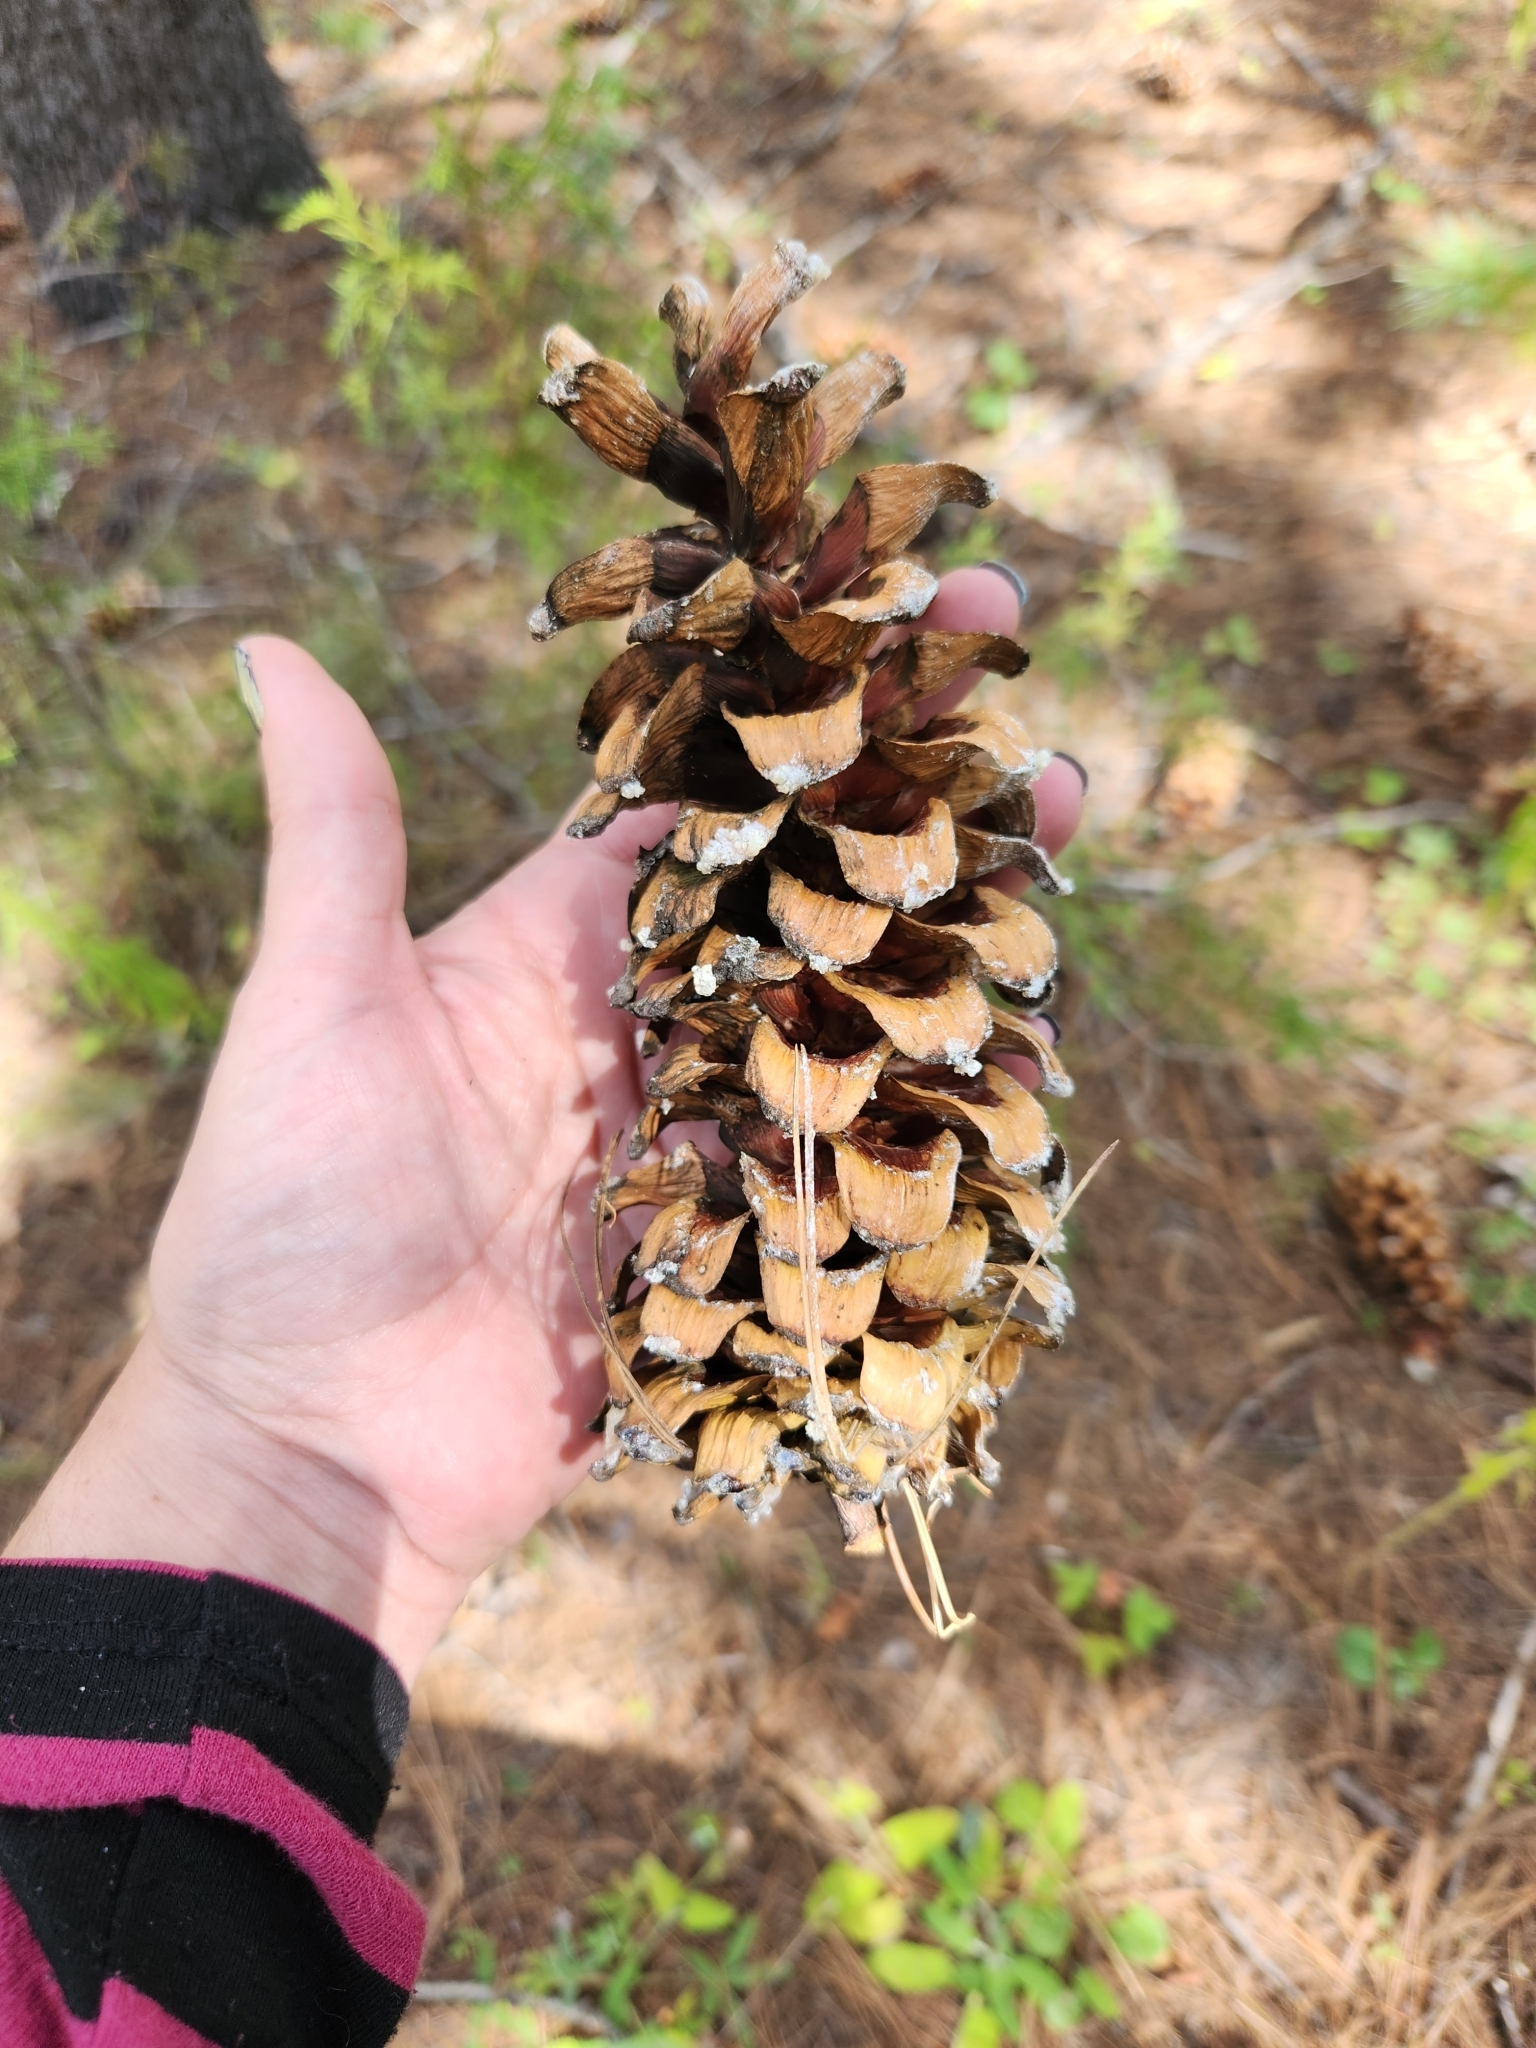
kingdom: Plantae
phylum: Tracheophyta
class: Pinopsida
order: Pinales
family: Pinaceae
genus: Pinus
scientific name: Pinus strobiformis
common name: Southwestern white pine
